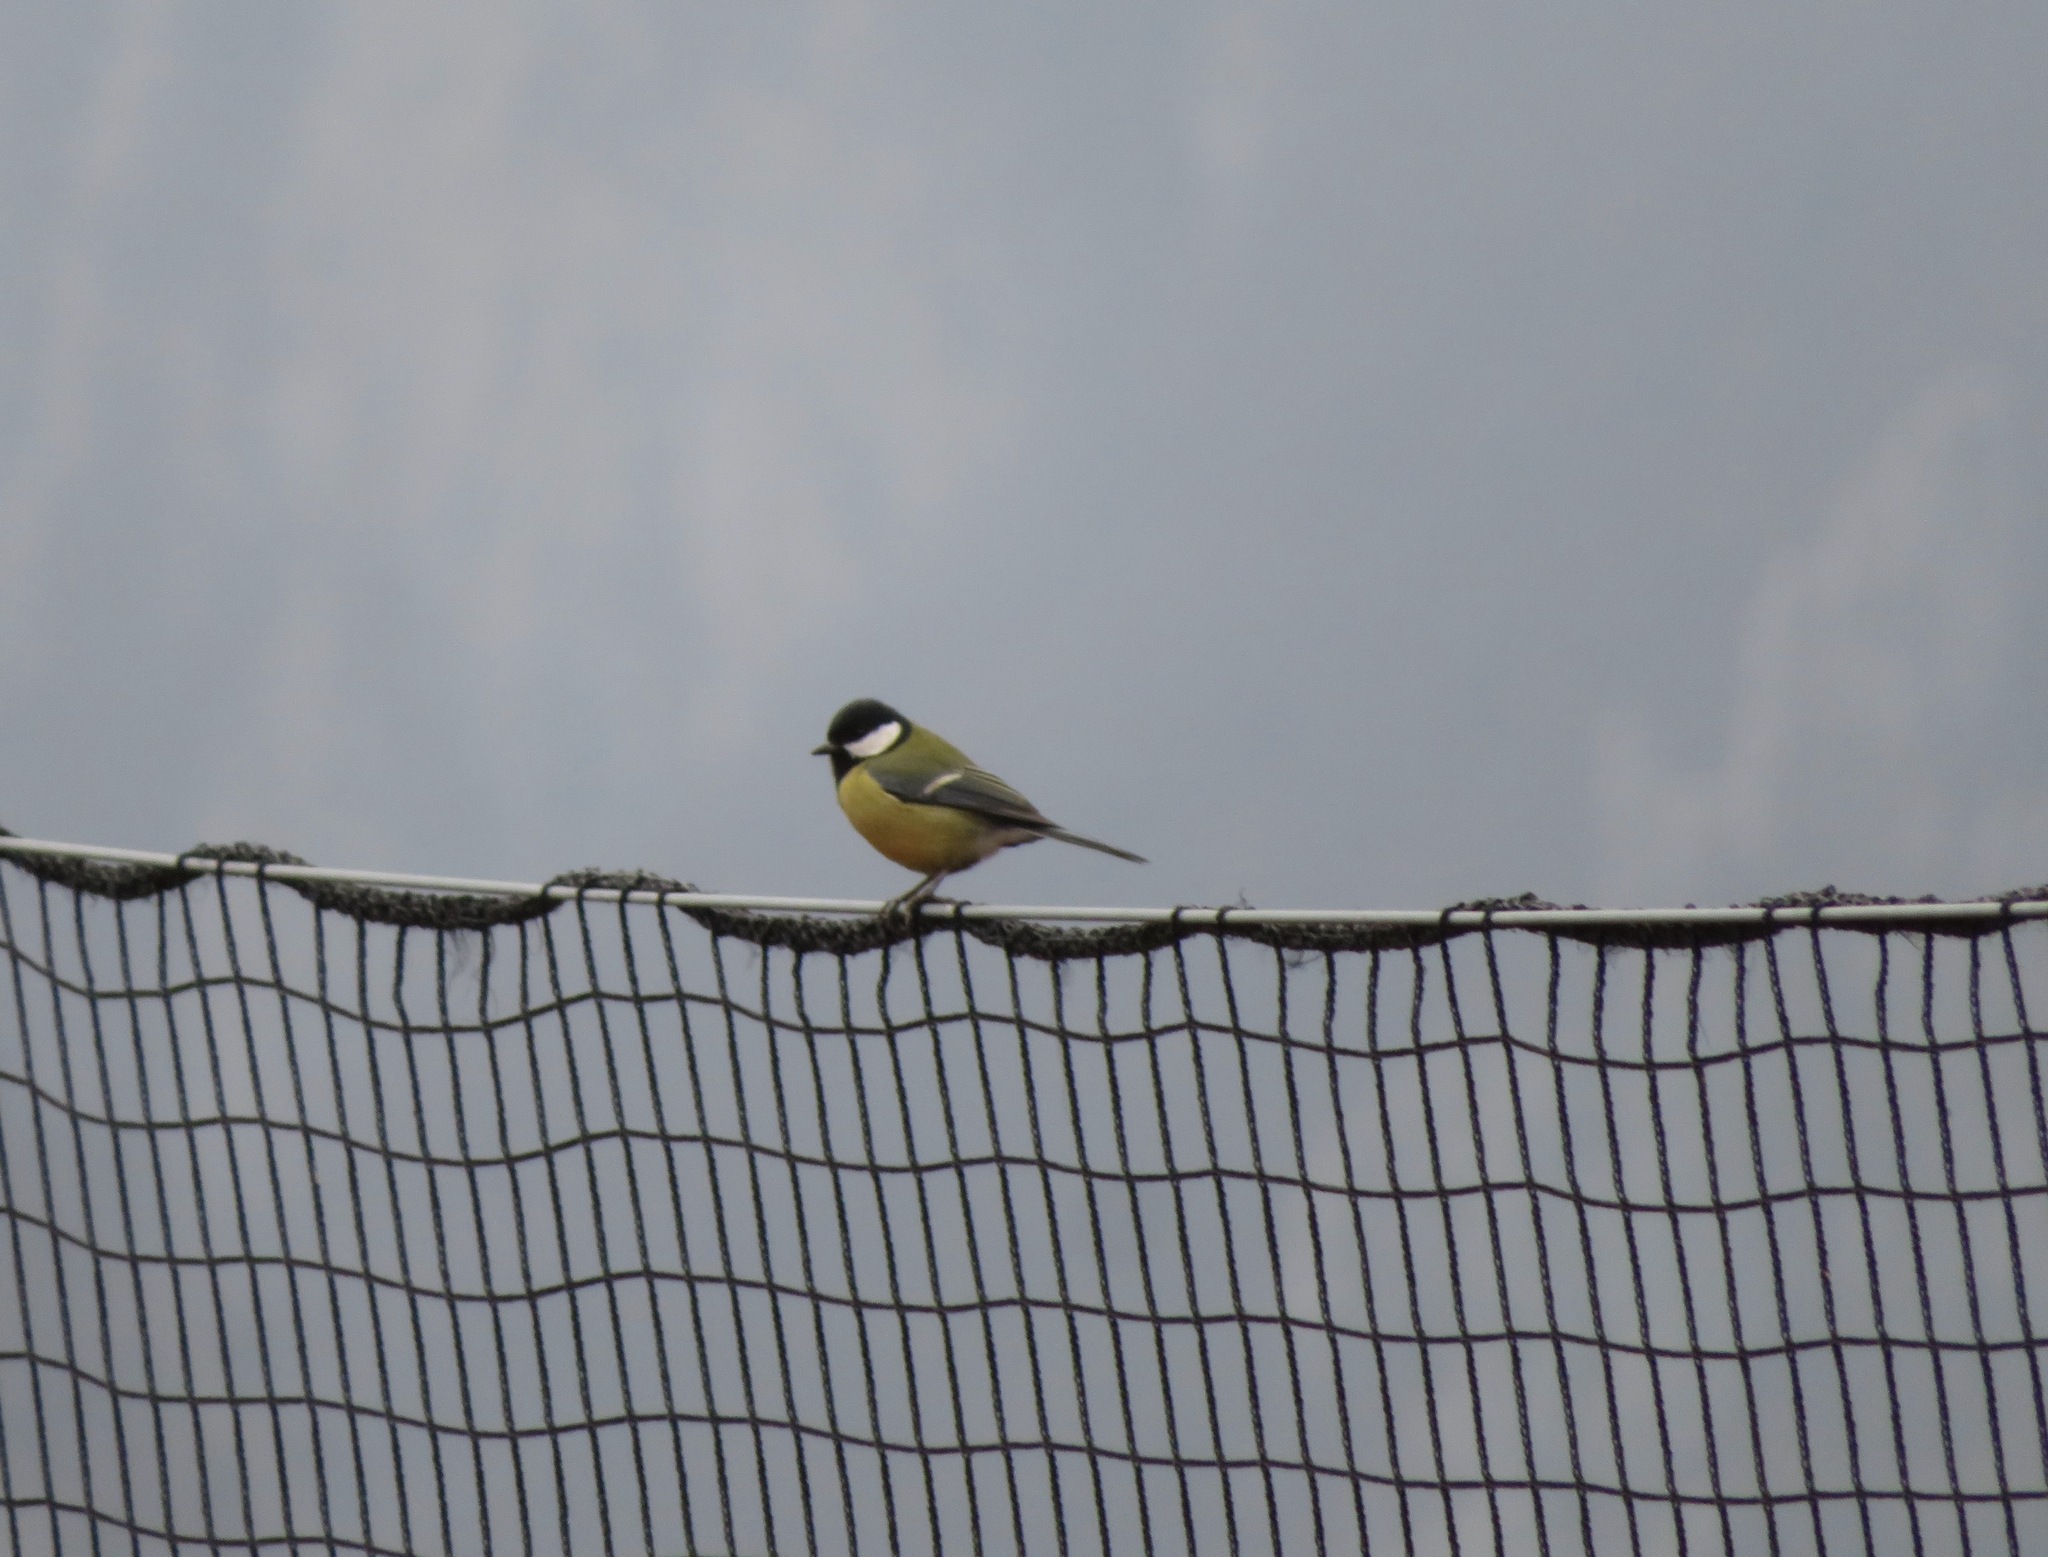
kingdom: Animalia
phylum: Chordata
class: Aves
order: Passeriformes
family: Paridae
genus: Parus
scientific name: Parus major
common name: Great tit
